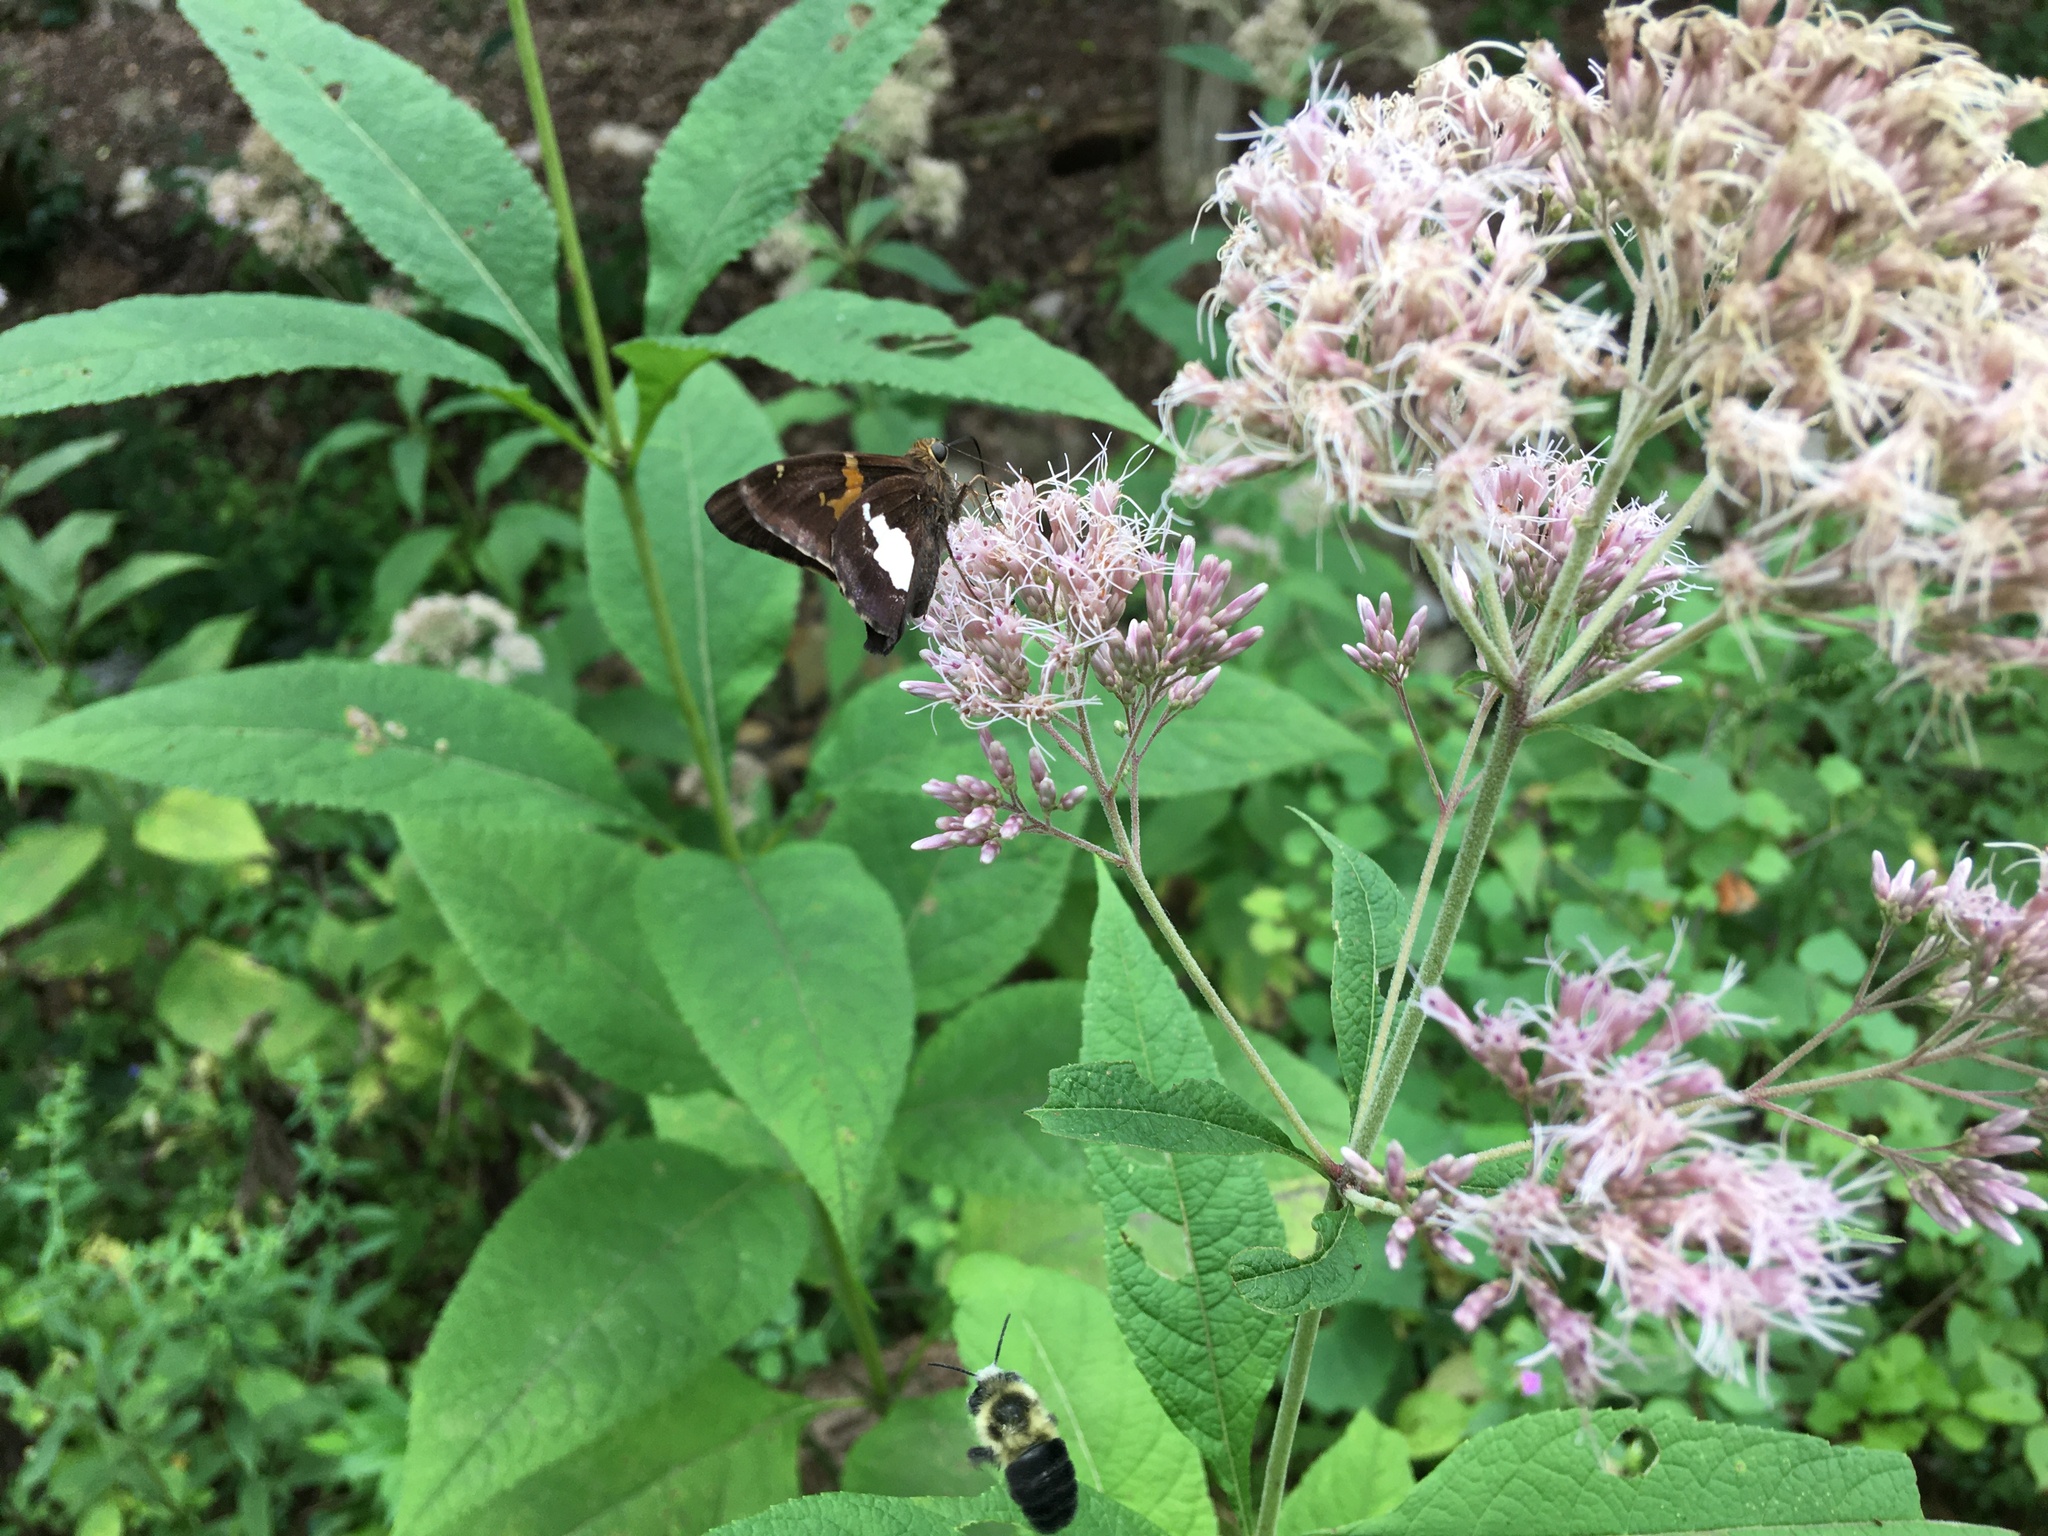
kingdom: Plantae
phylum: Tracheophyta
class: Magnoliopsida
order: Asterales
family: Asteraceae
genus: Eutrochium
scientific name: Eutrochium purpureum
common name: Gravelroot
